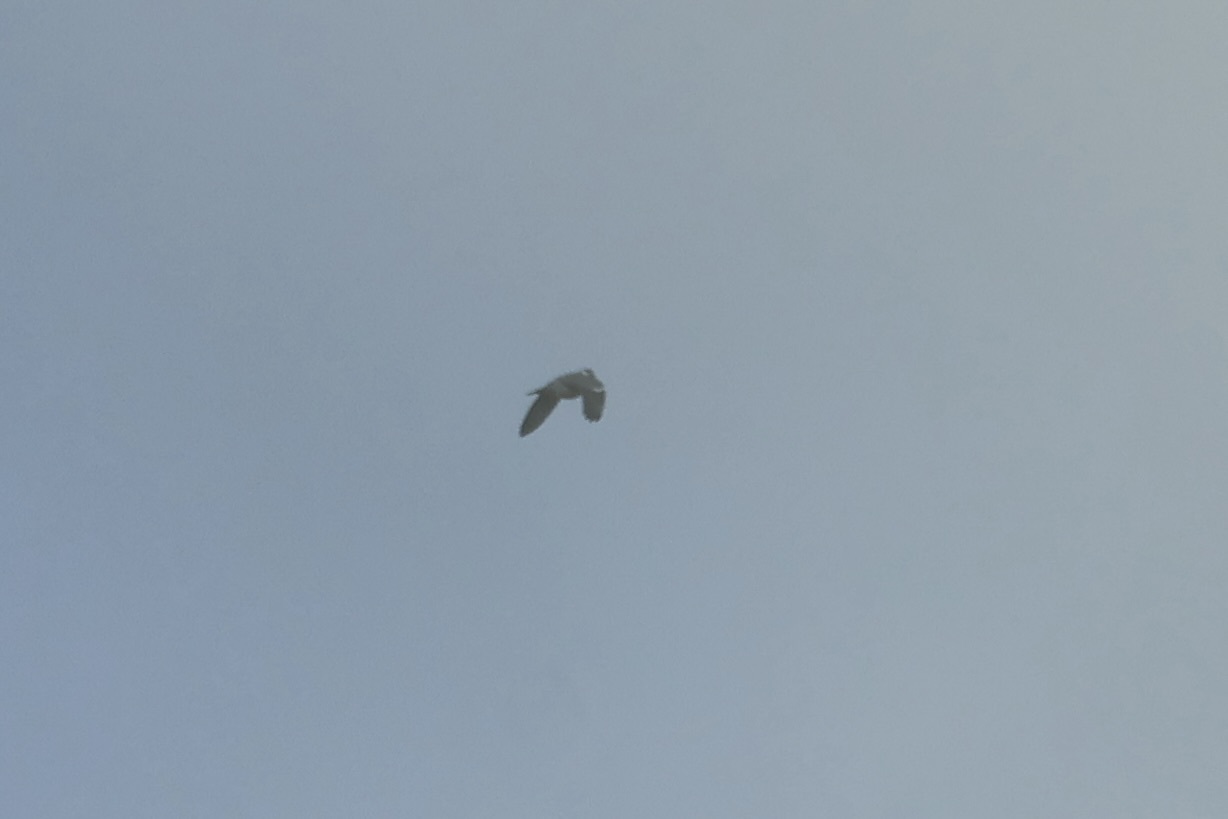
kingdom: Animalia
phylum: Chordata
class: Aves
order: Columbiformes
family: Columbidae
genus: Columba
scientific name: Columba palumbus
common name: Common wood pigeon
